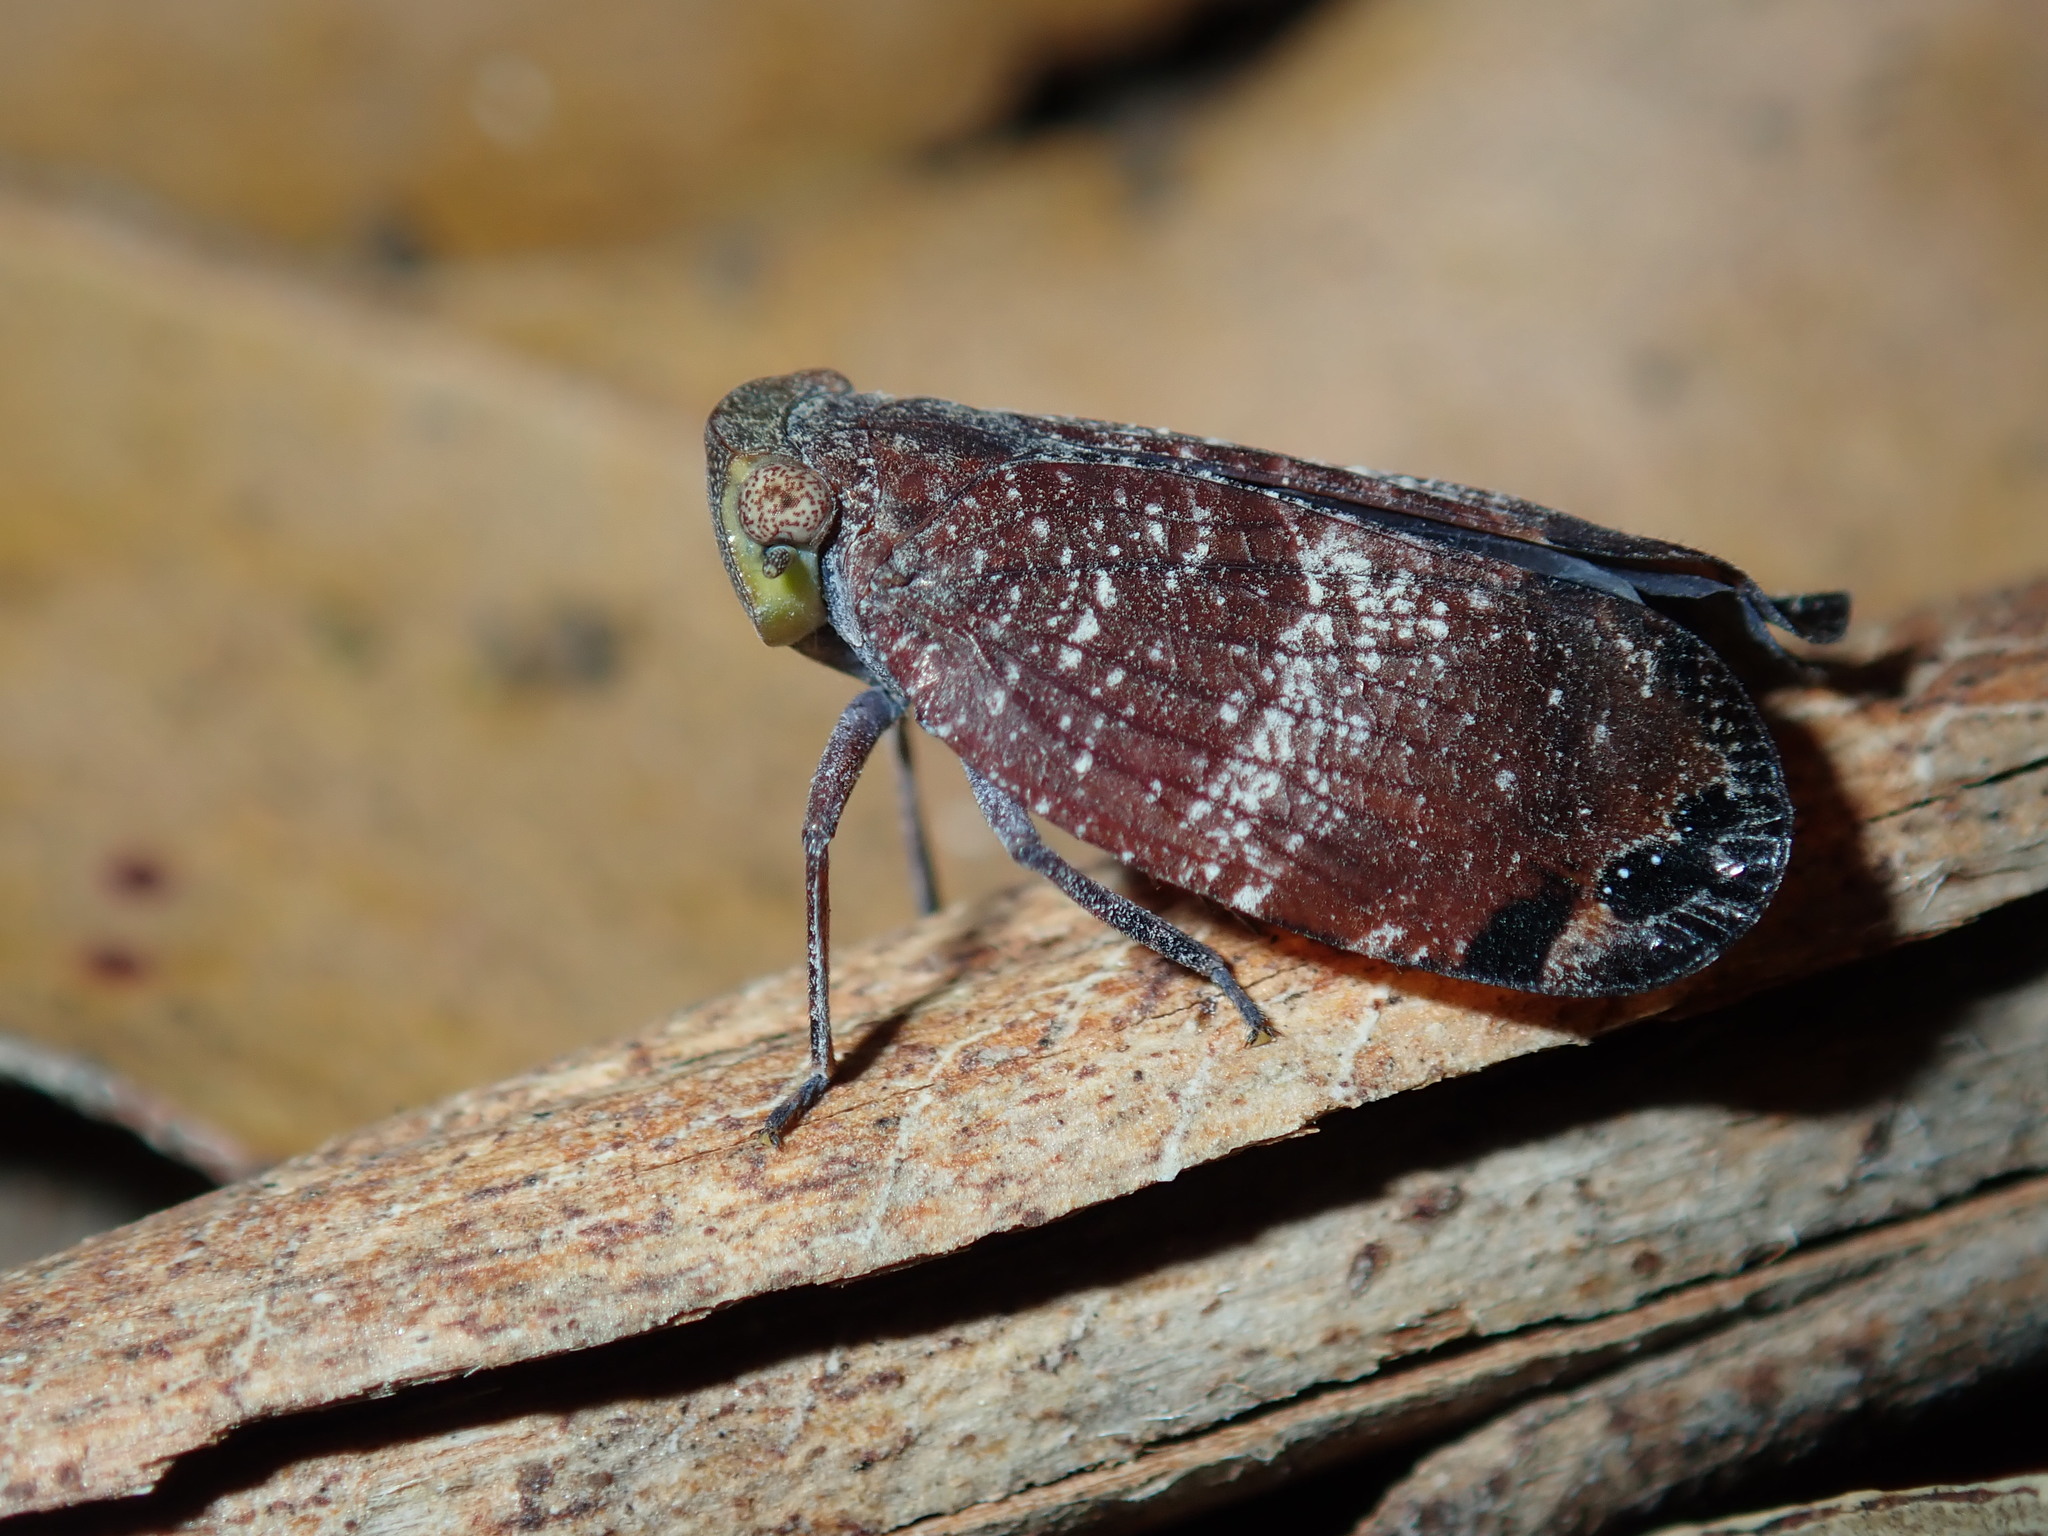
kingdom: Animalia
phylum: Arthropoda
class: Insecta
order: Hemiptera
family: Eurybrachidae
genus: Platybrachys
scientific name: Platybrachys decemmacula
